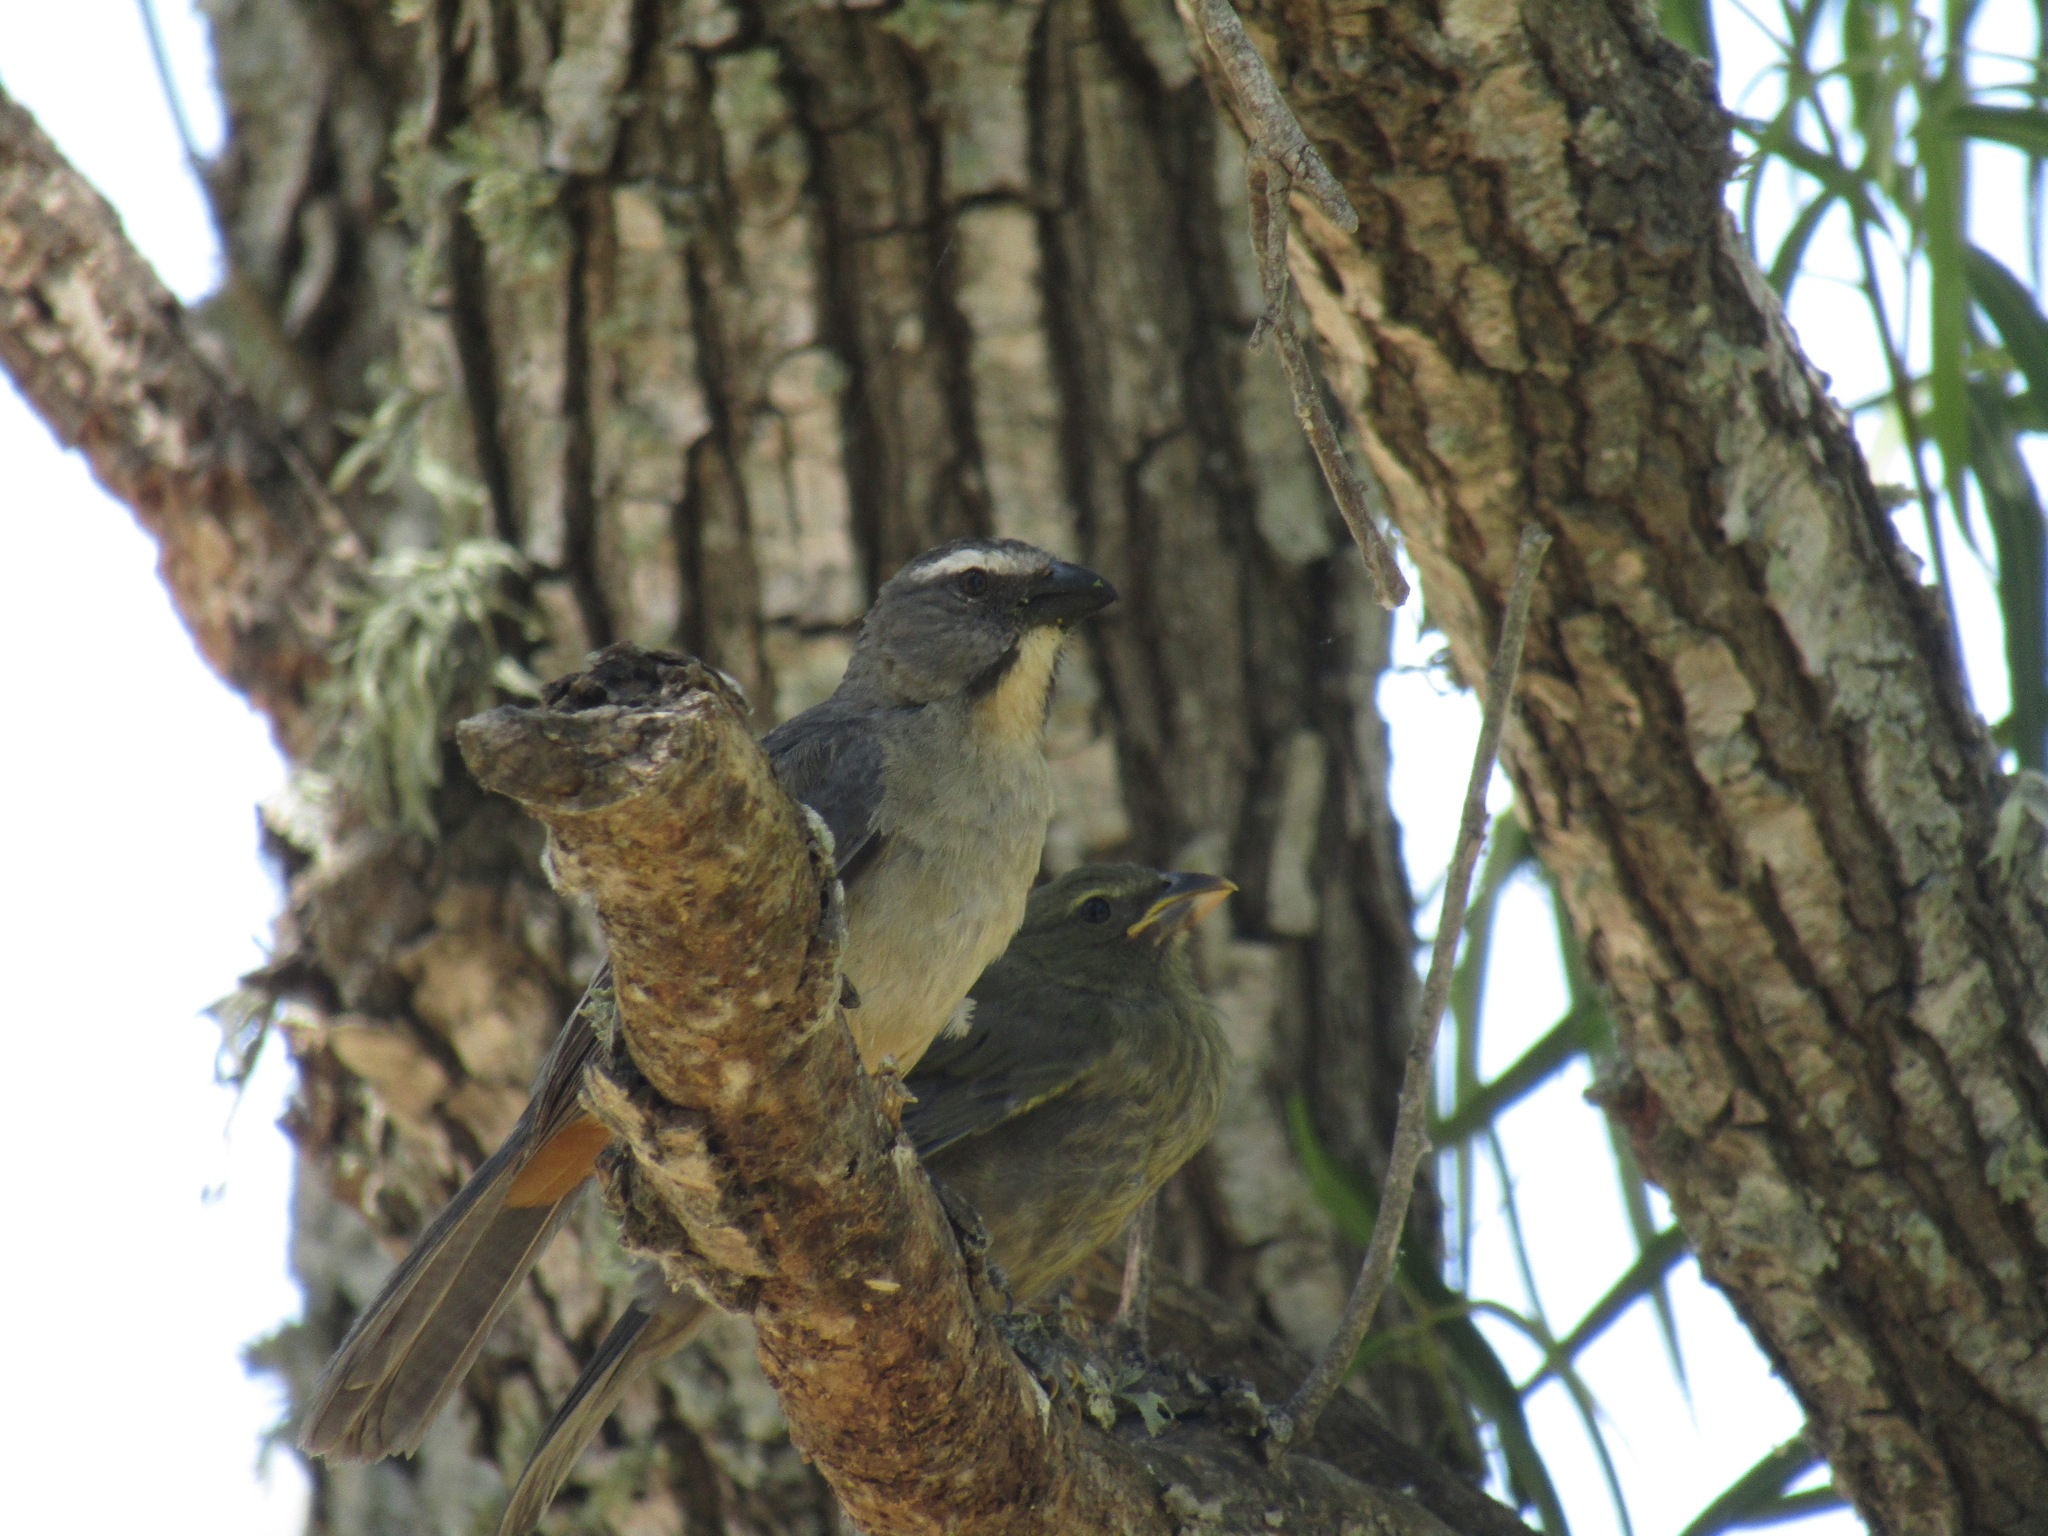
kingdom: Animalia
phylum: Chordata
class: Aves
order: Passeriformes
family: Thraupidae
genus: Saltator
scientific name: Saltator coerulescens
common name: Grayish saltator
